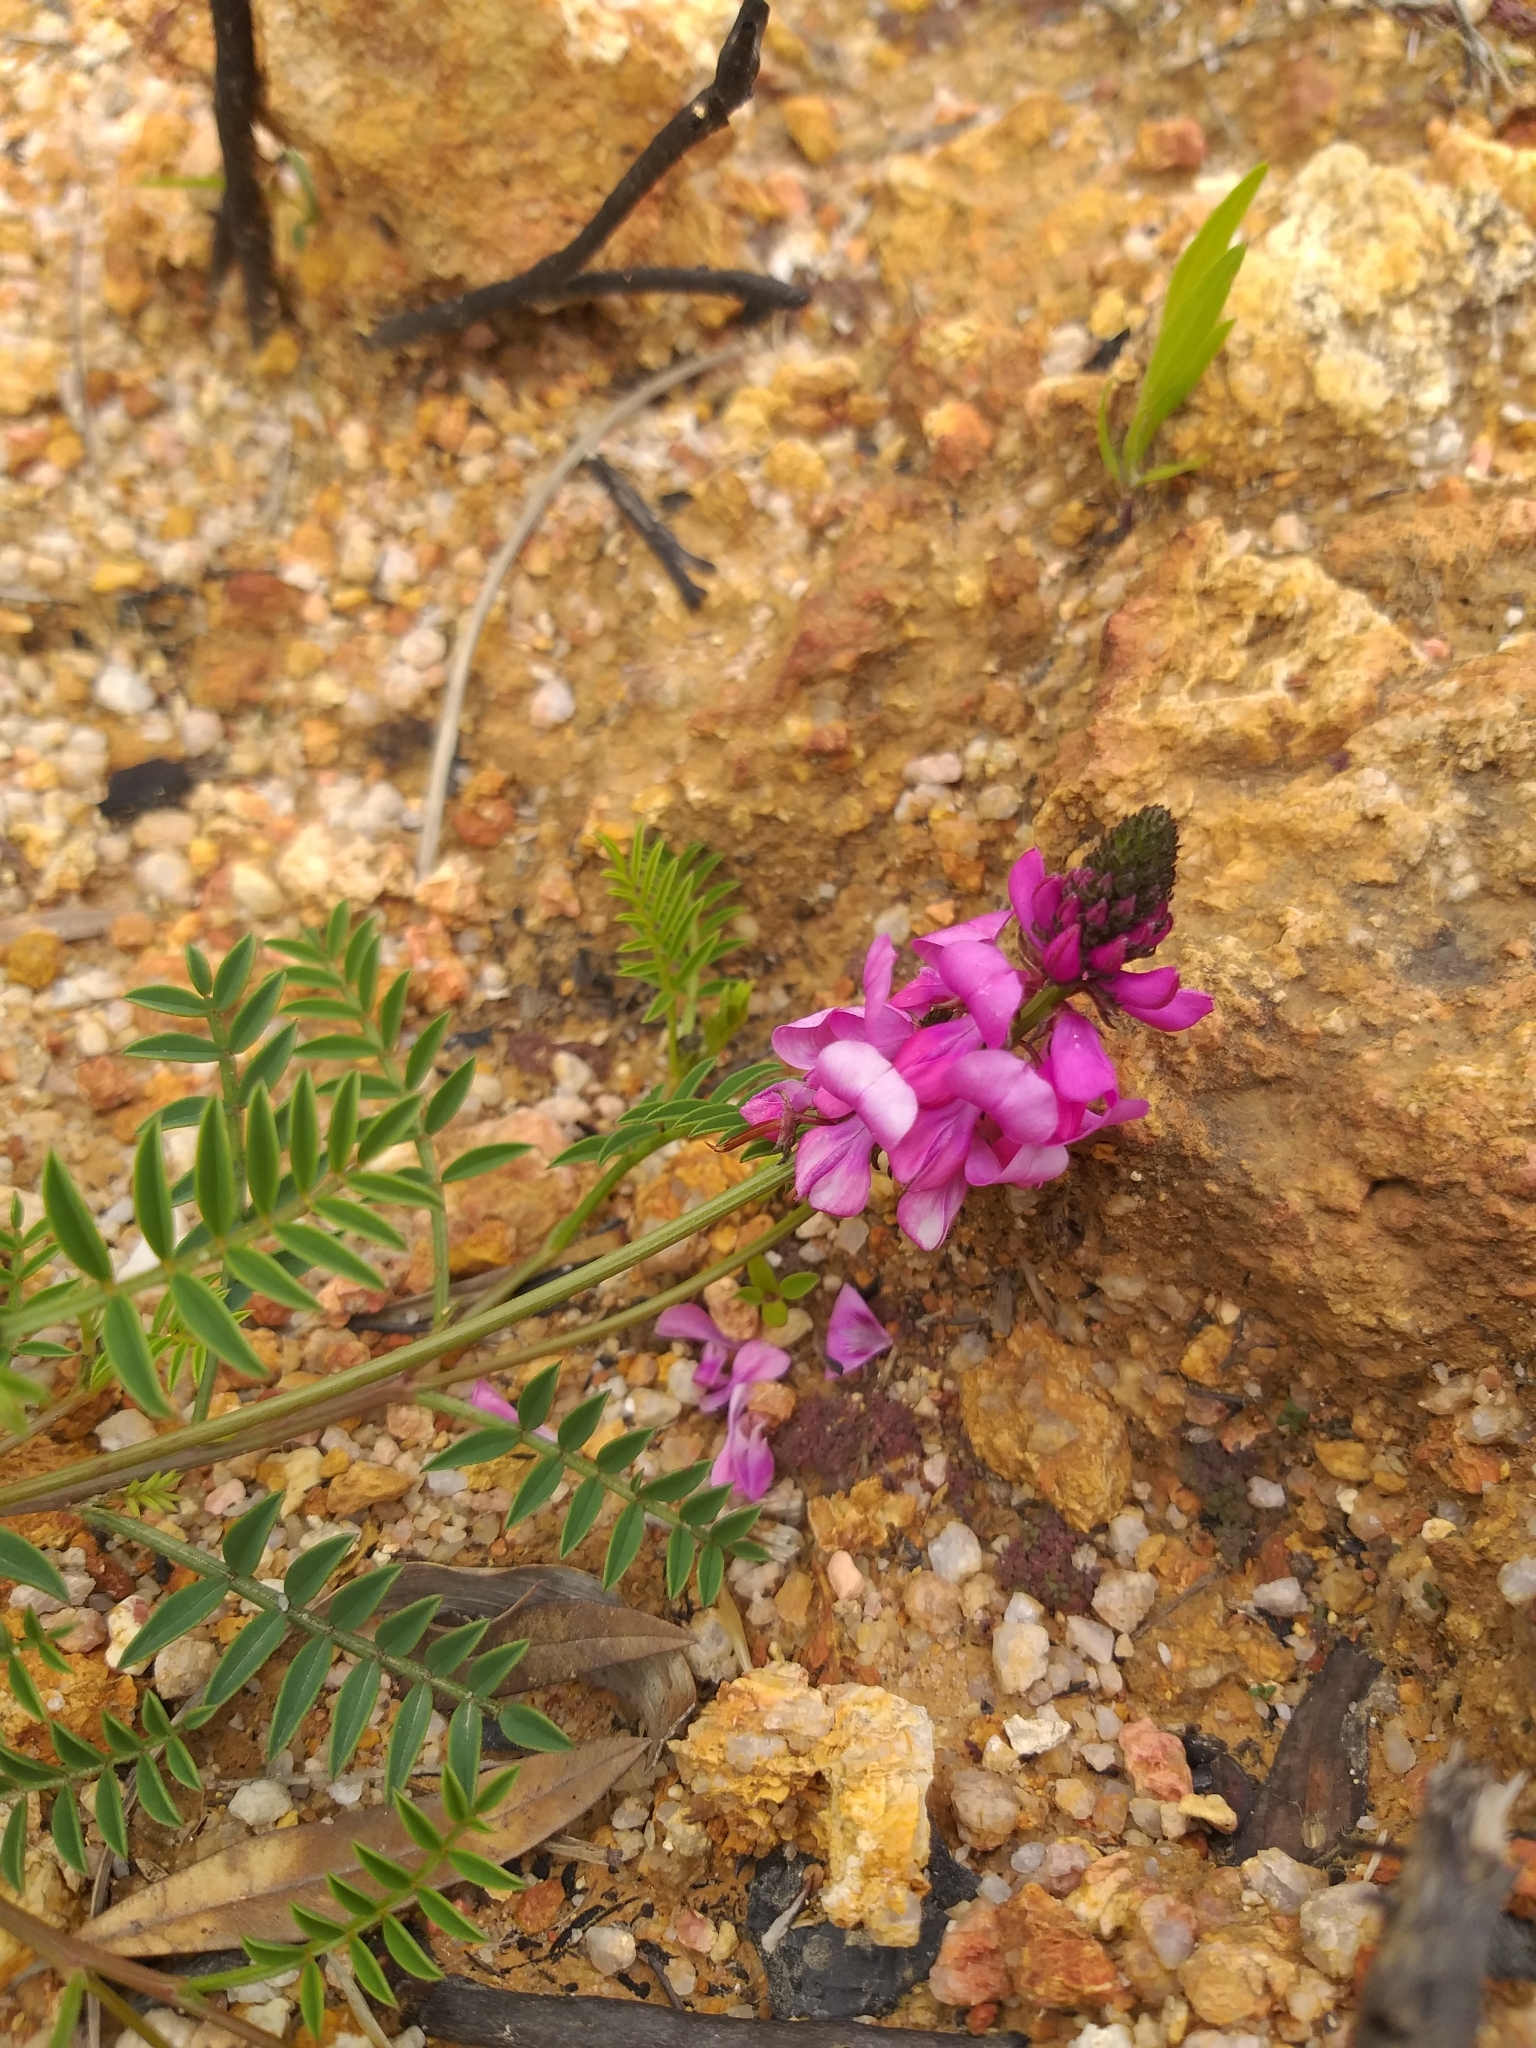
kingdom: Plantae
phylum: Tracheophyta
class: Magnoliopsida
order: Fabales
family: Fabaceae
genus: Indigofera
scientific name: Indigofera capillaris
